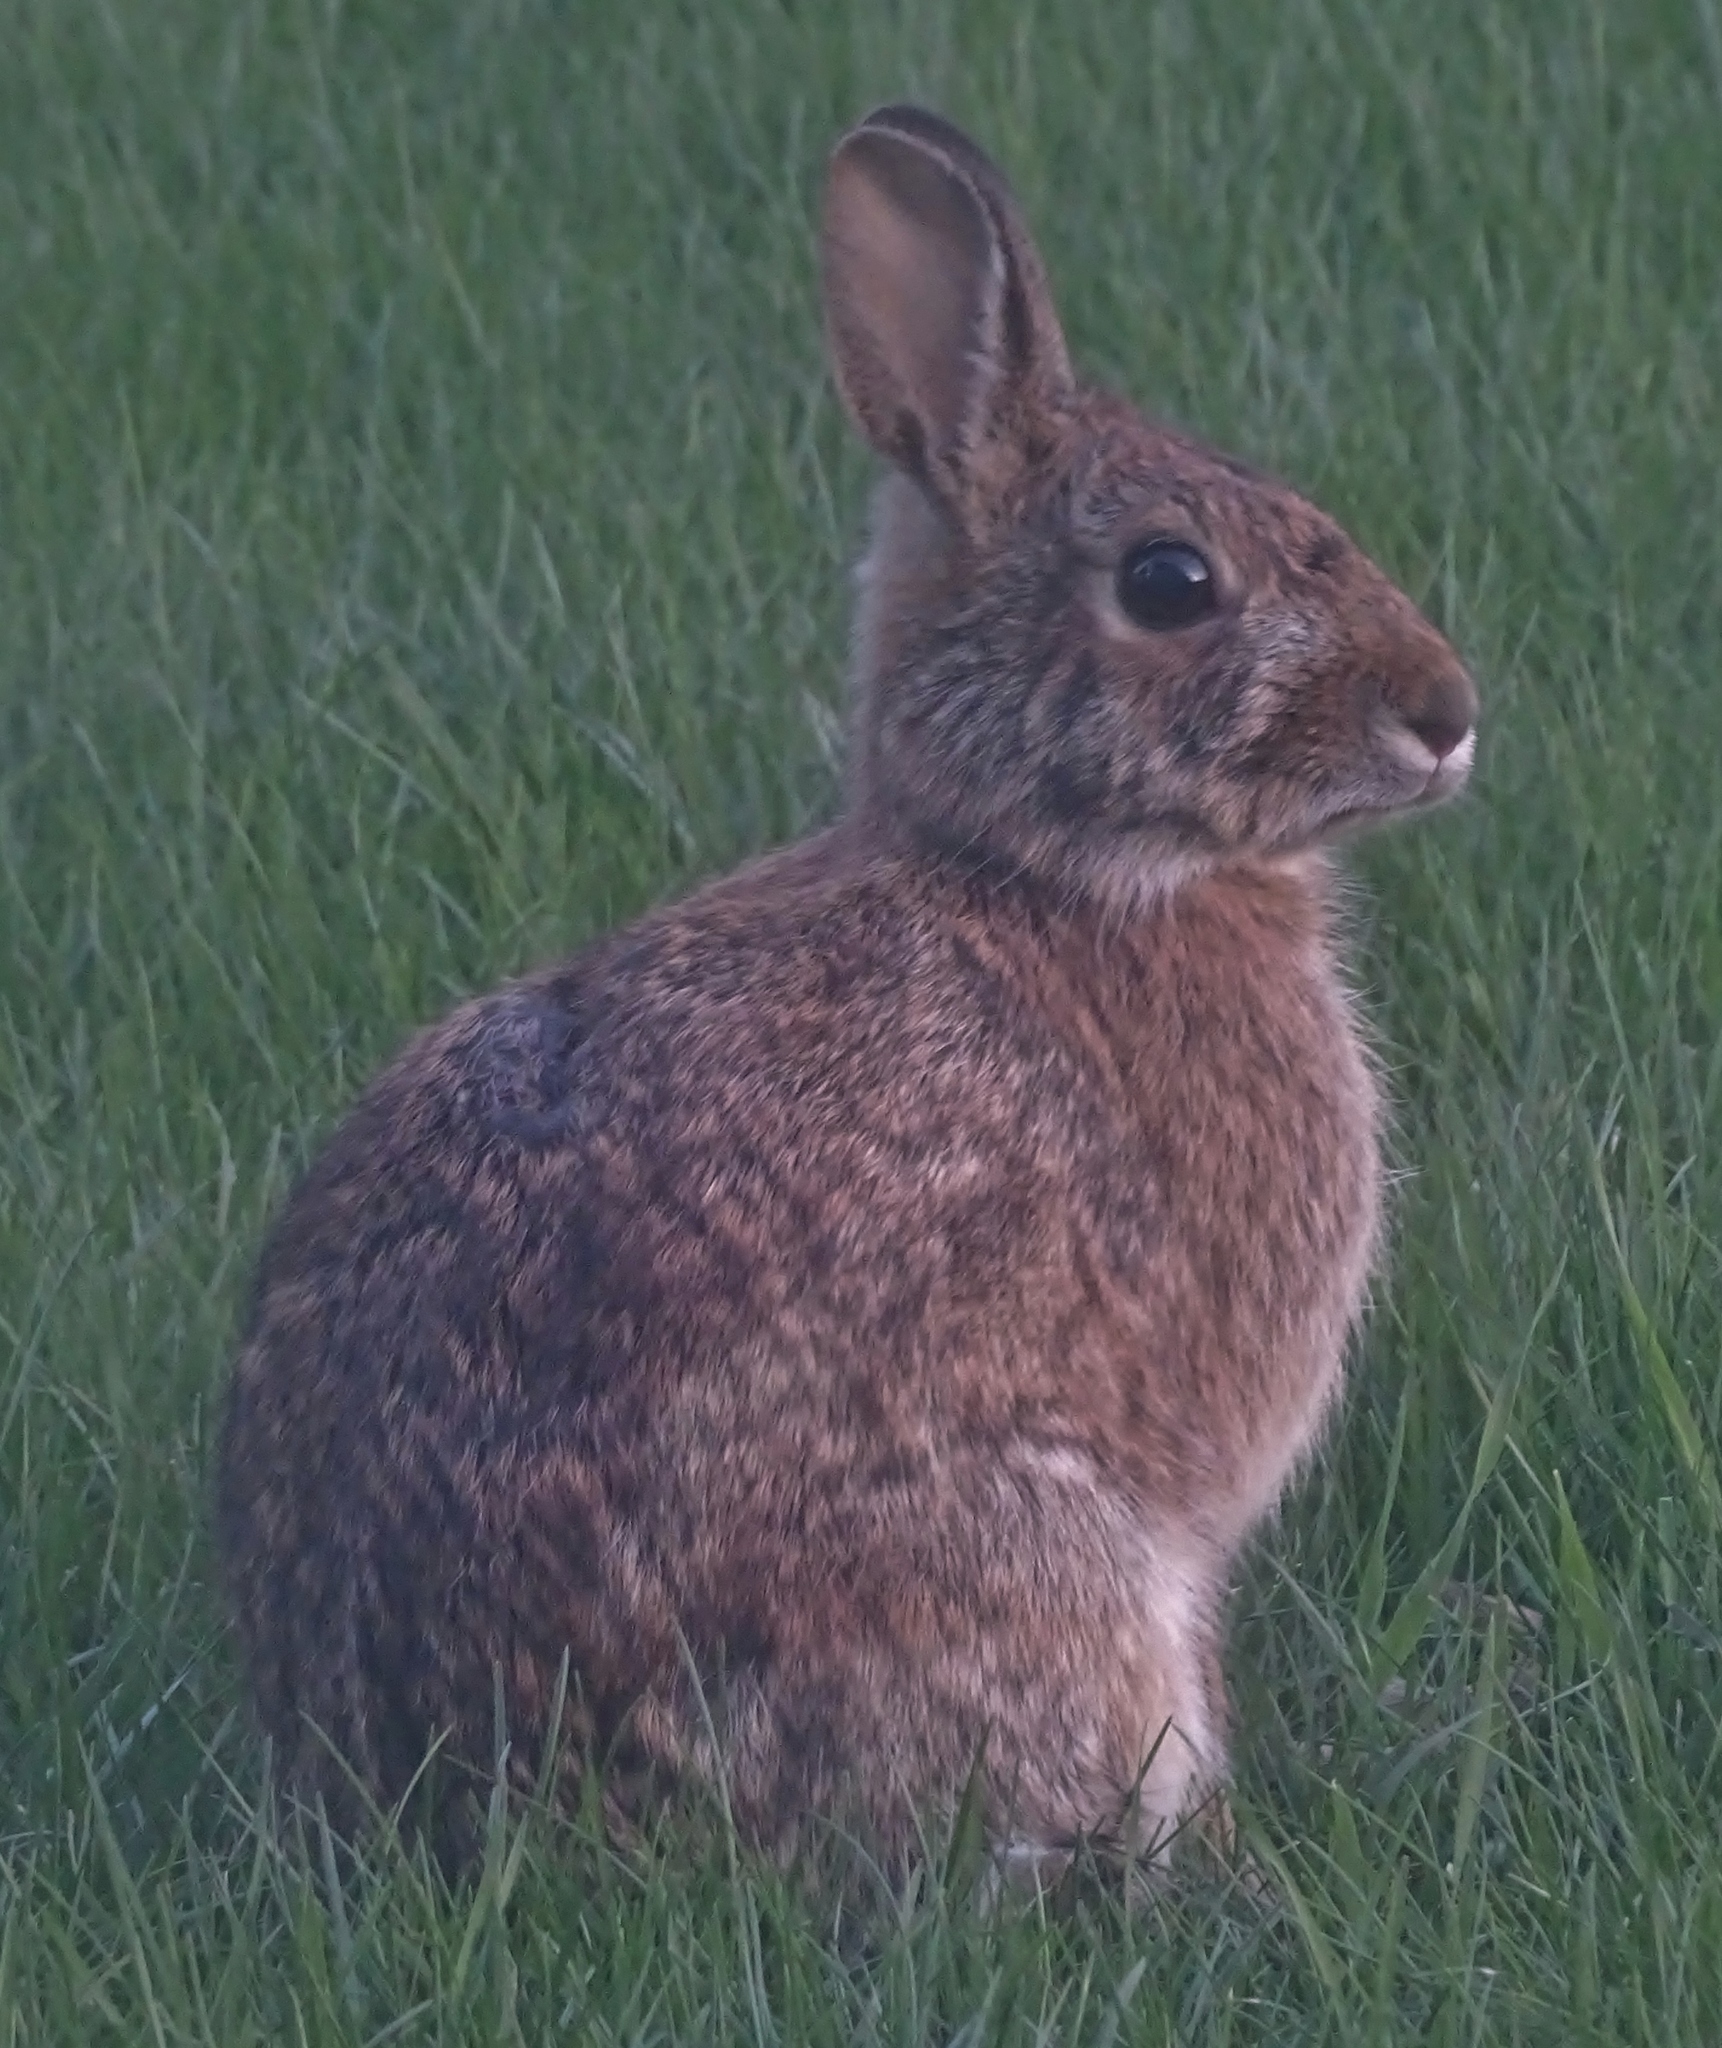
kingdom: Animalia
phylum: Chordata
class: Mammalia
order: Lagomorpha
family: Leporidae
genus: Sylvilagus
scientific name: Sylvilagus floridanus
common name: Eastern cottontail
